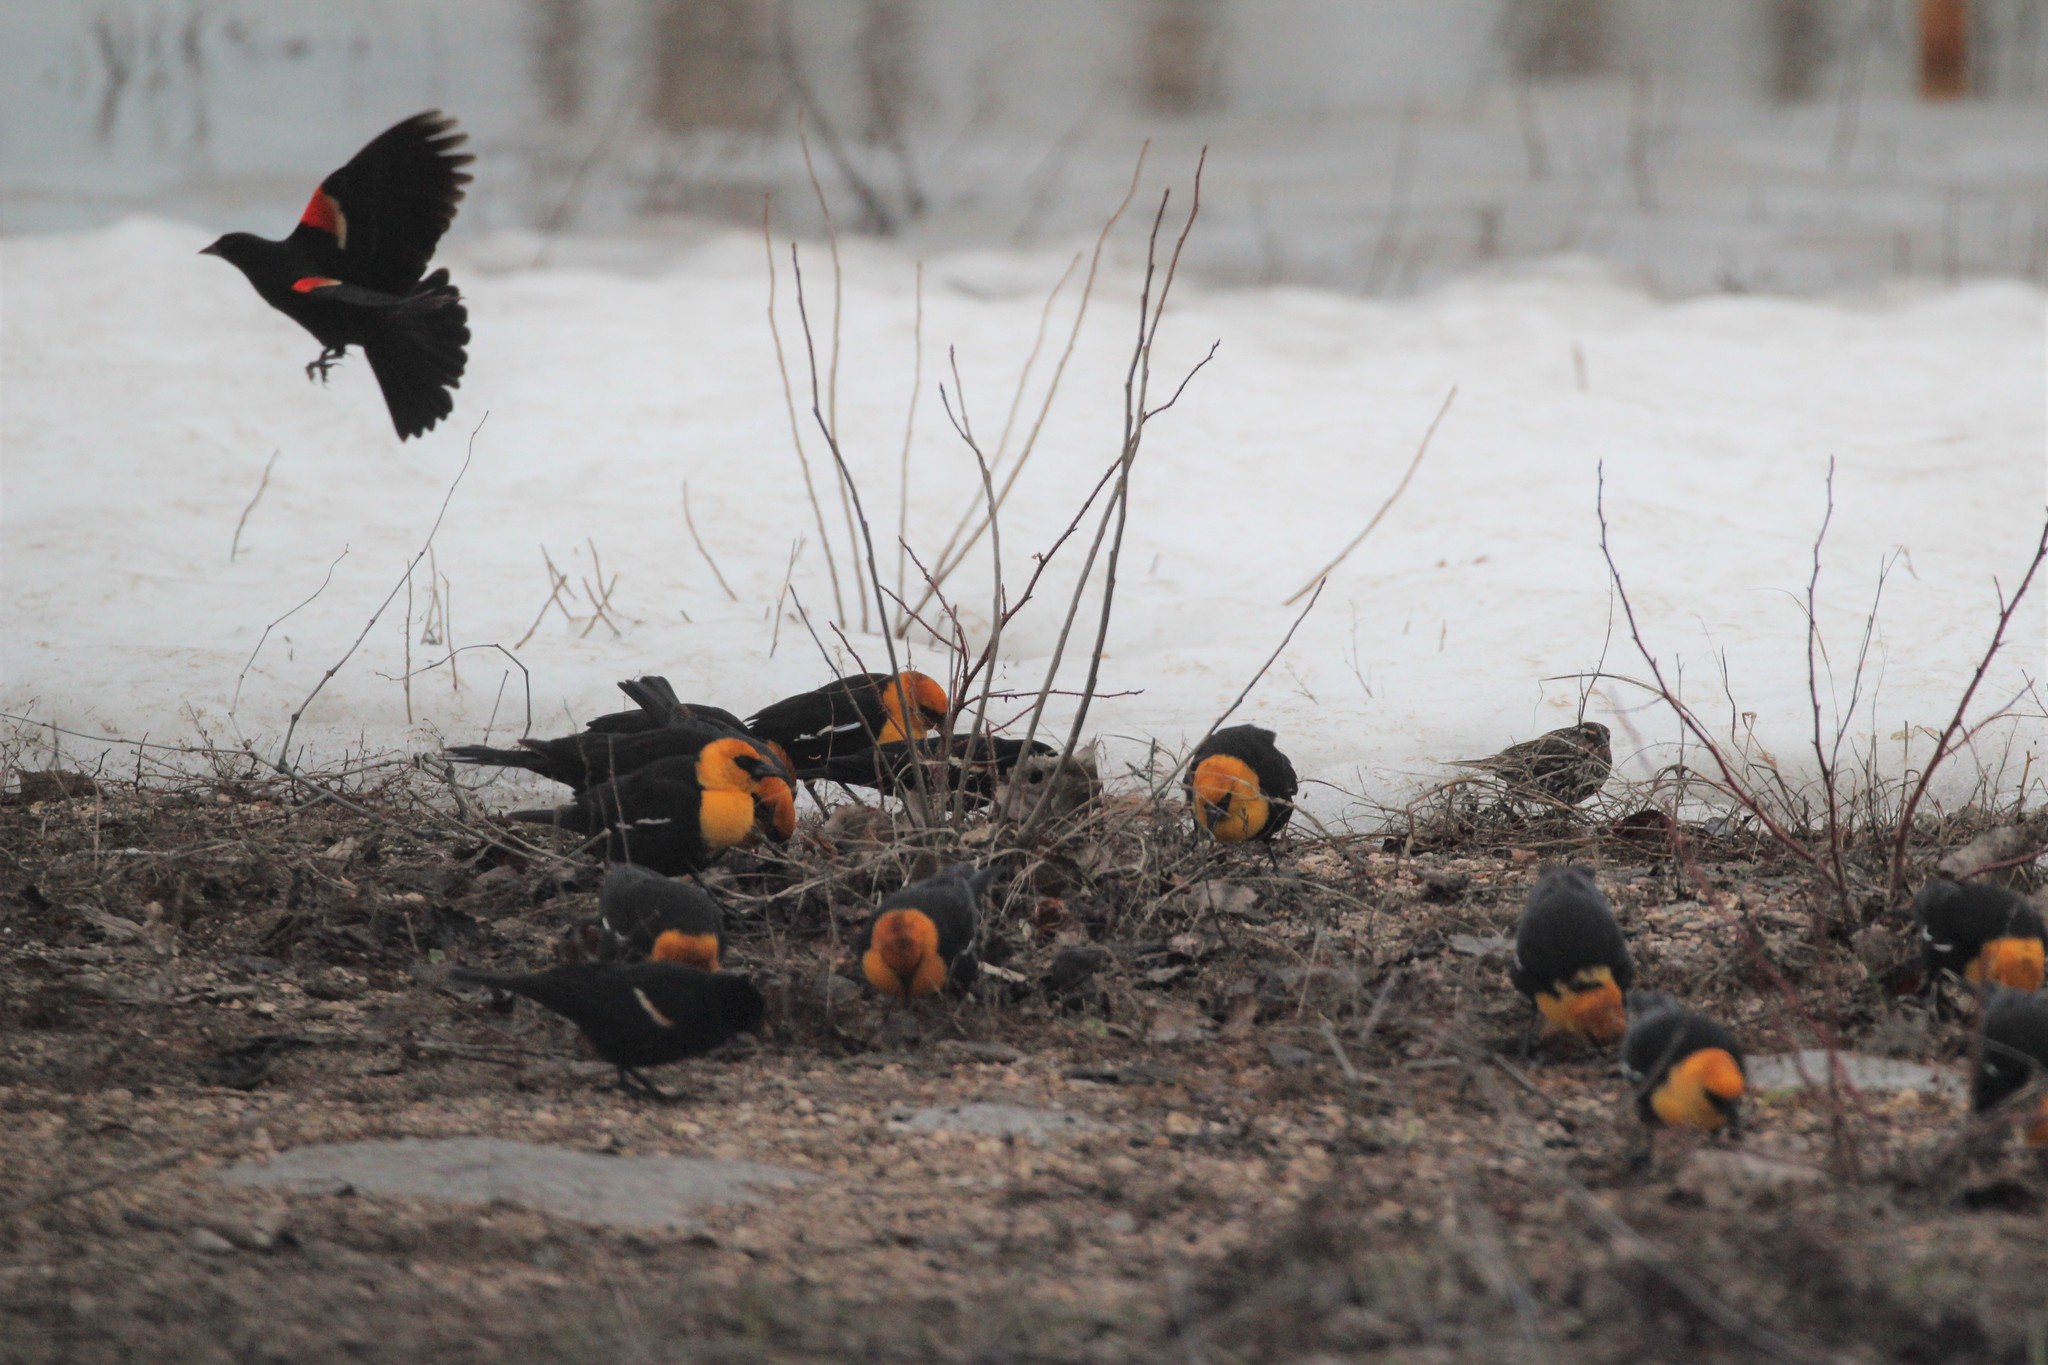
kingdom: Animalia
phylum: Chordata
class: Aves
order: Passeriformes
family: Icteridae
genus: Xanthocephalus
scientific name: Xanthocephalus xanthocephalus
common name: Yellow-headed blackbird
